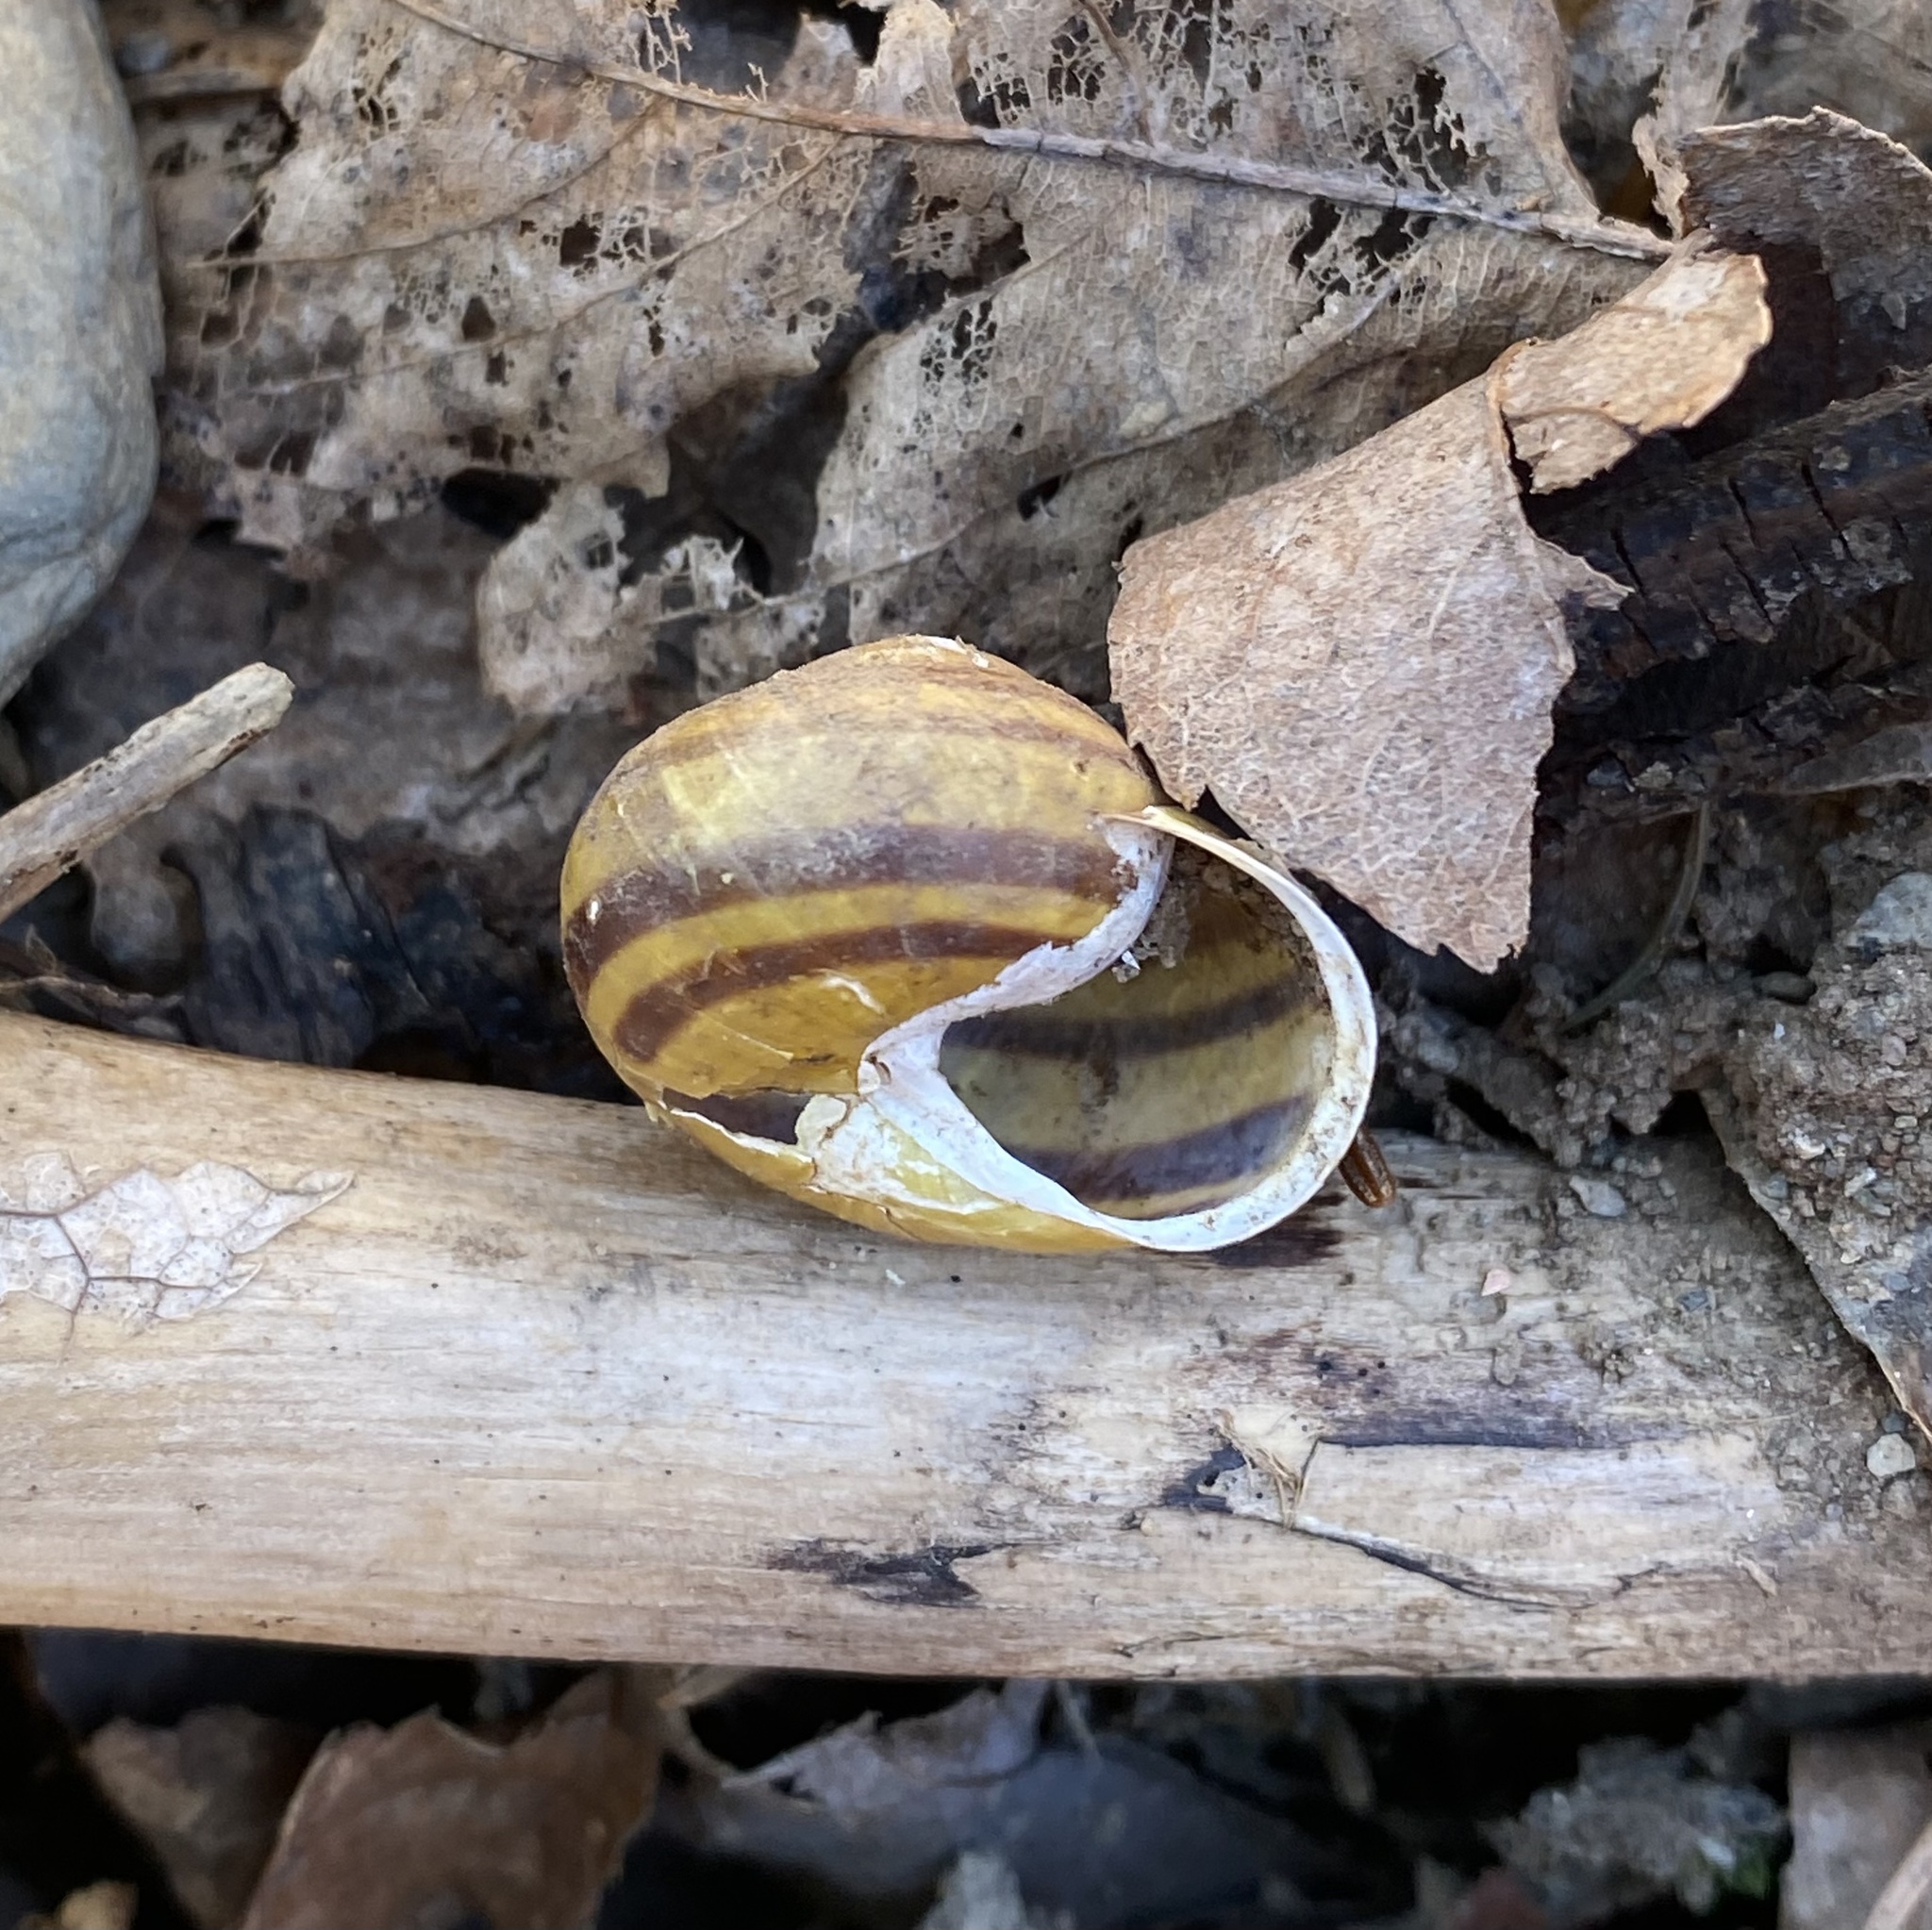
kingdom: Animalia
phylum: Mollusca
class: Gastropoda
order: Stylommatophora
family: Helicidae
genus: Cepaea
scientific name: Cepaea hortensis
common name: White-lip gardensnail
